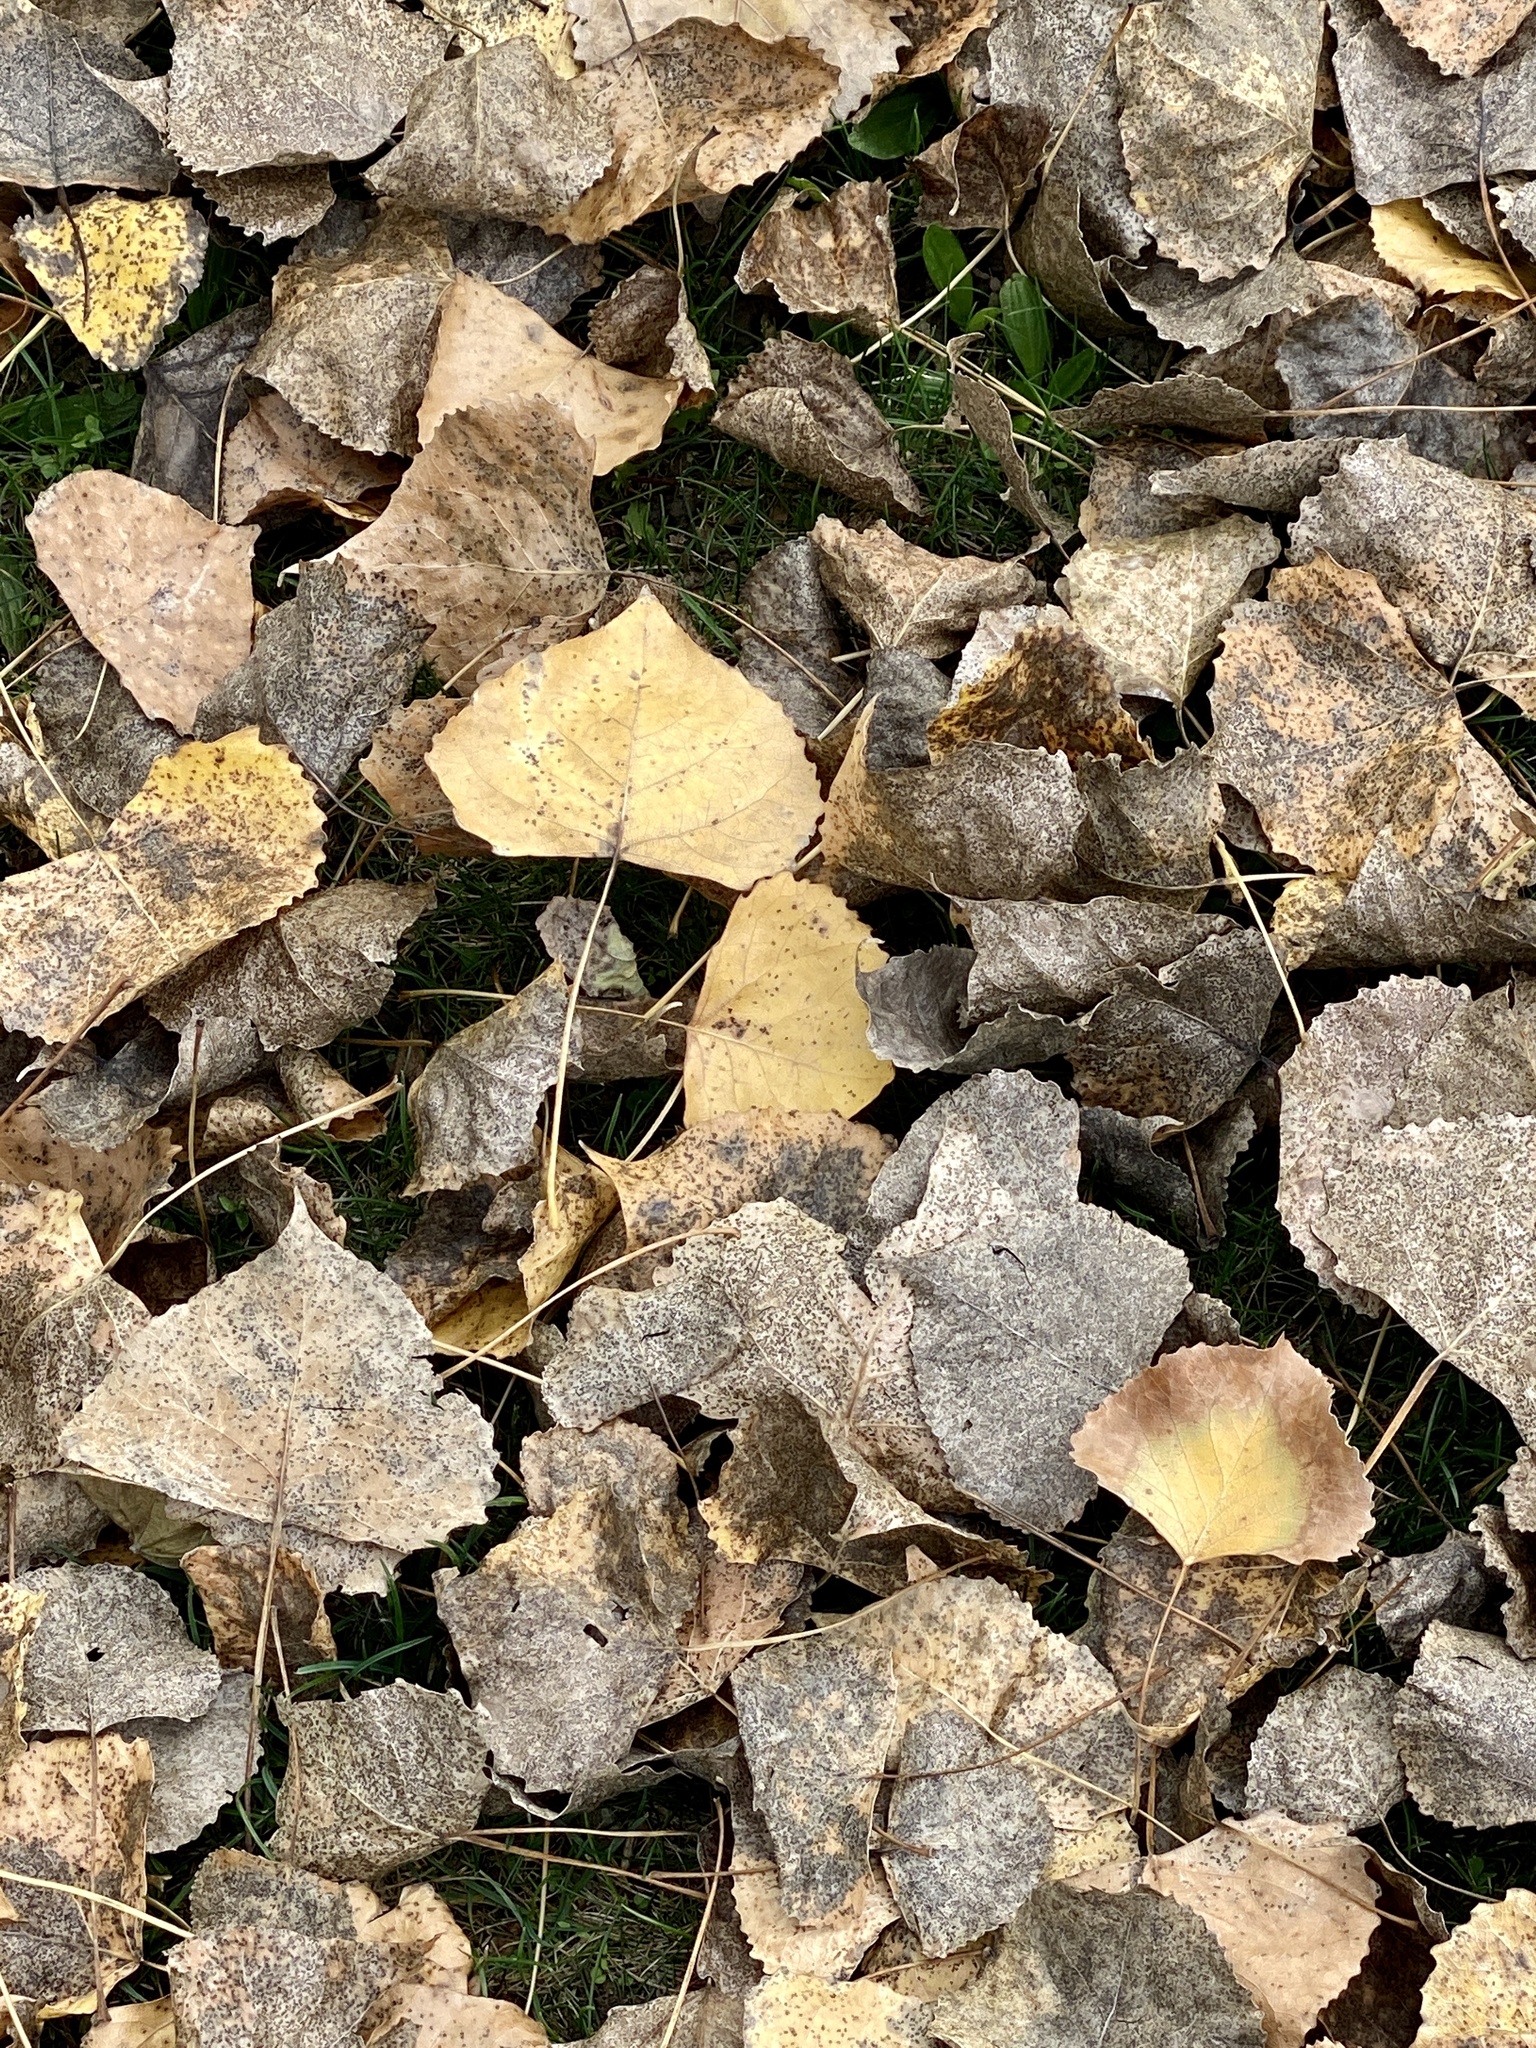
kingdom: Plantae
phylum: Tracheophyta
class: Magnoliopsida
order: Malpighiales
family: Salicaceae
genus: Populus
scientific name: Populus deltoides
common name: Eastern cottonwood
